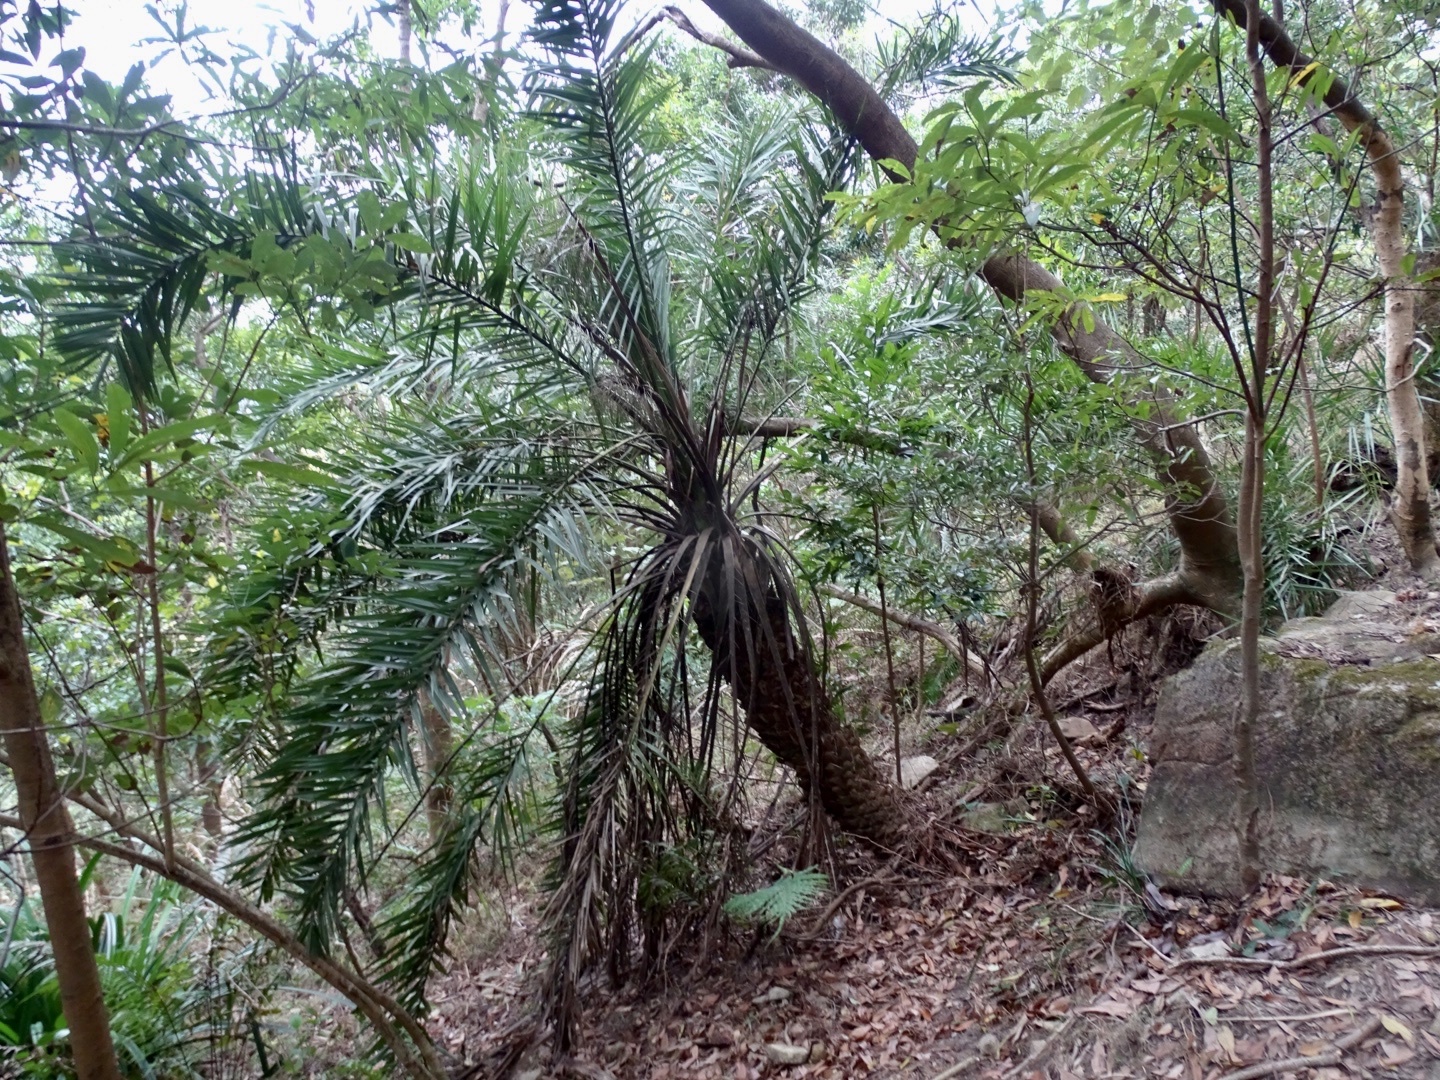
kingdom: Plantae
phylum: Tracheophyta
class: Liliopsida
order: Arecales
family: Arecaceae
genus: Phoenix
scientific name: Phoenix loureiroi
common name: Loureiro's palm
